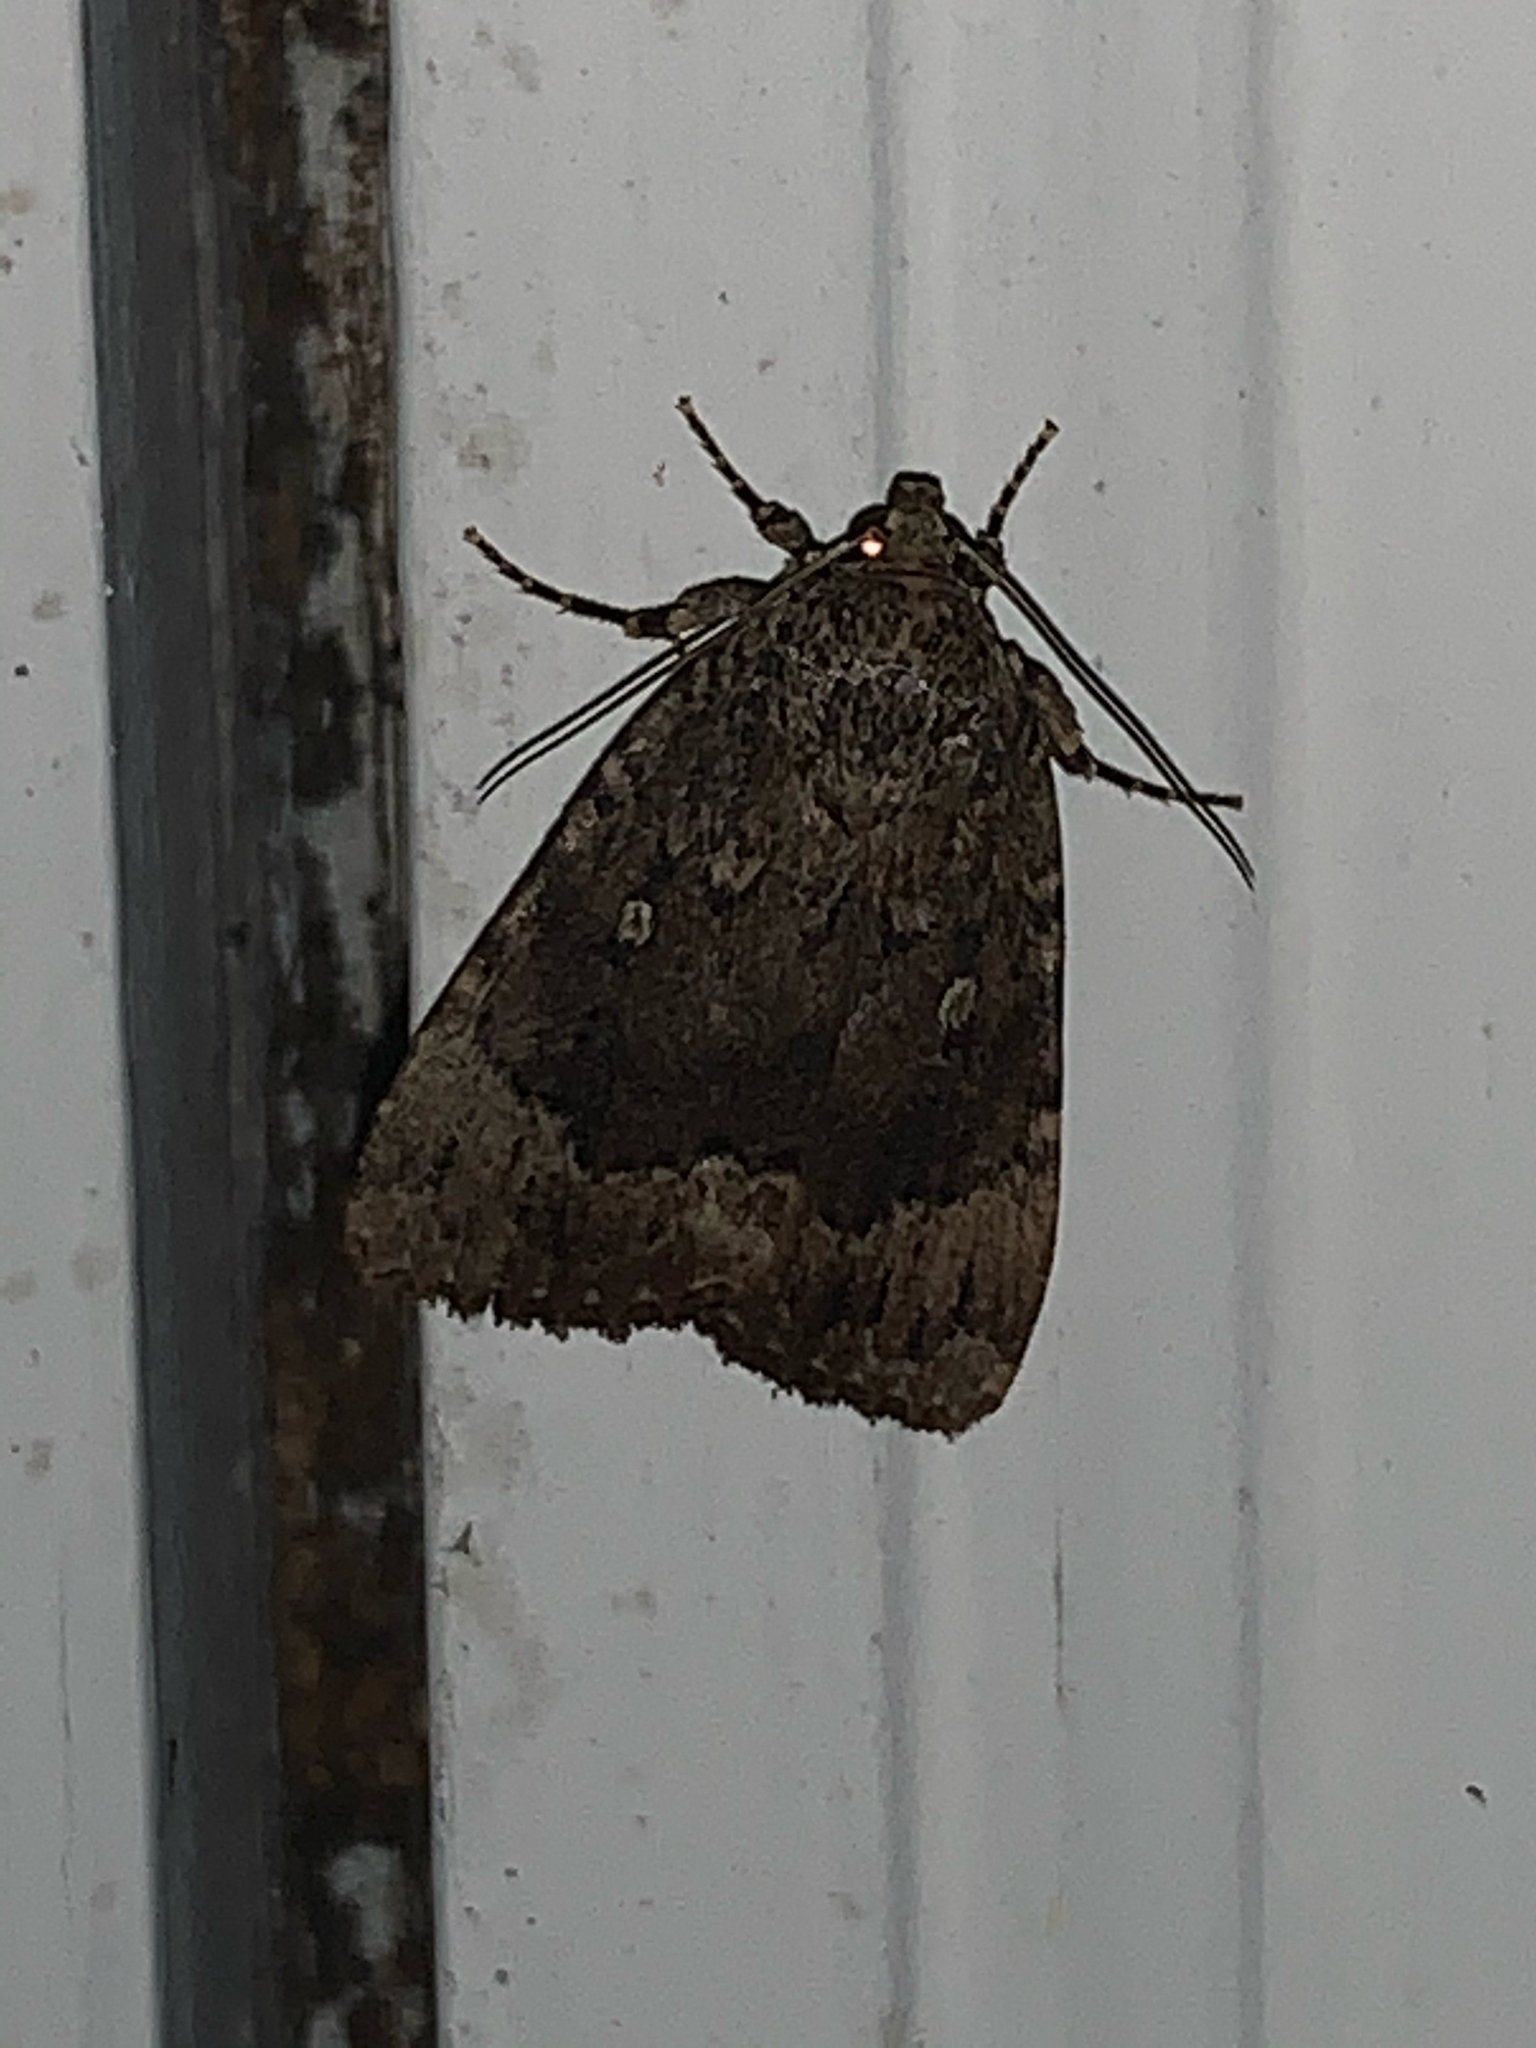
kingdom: Animalia
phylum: Arthropoda
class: Insecta
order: Lepidoptera
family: Noctuidae
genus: Amphipyra
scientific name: Amphipyra pyramidoides
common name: American copper underwing
